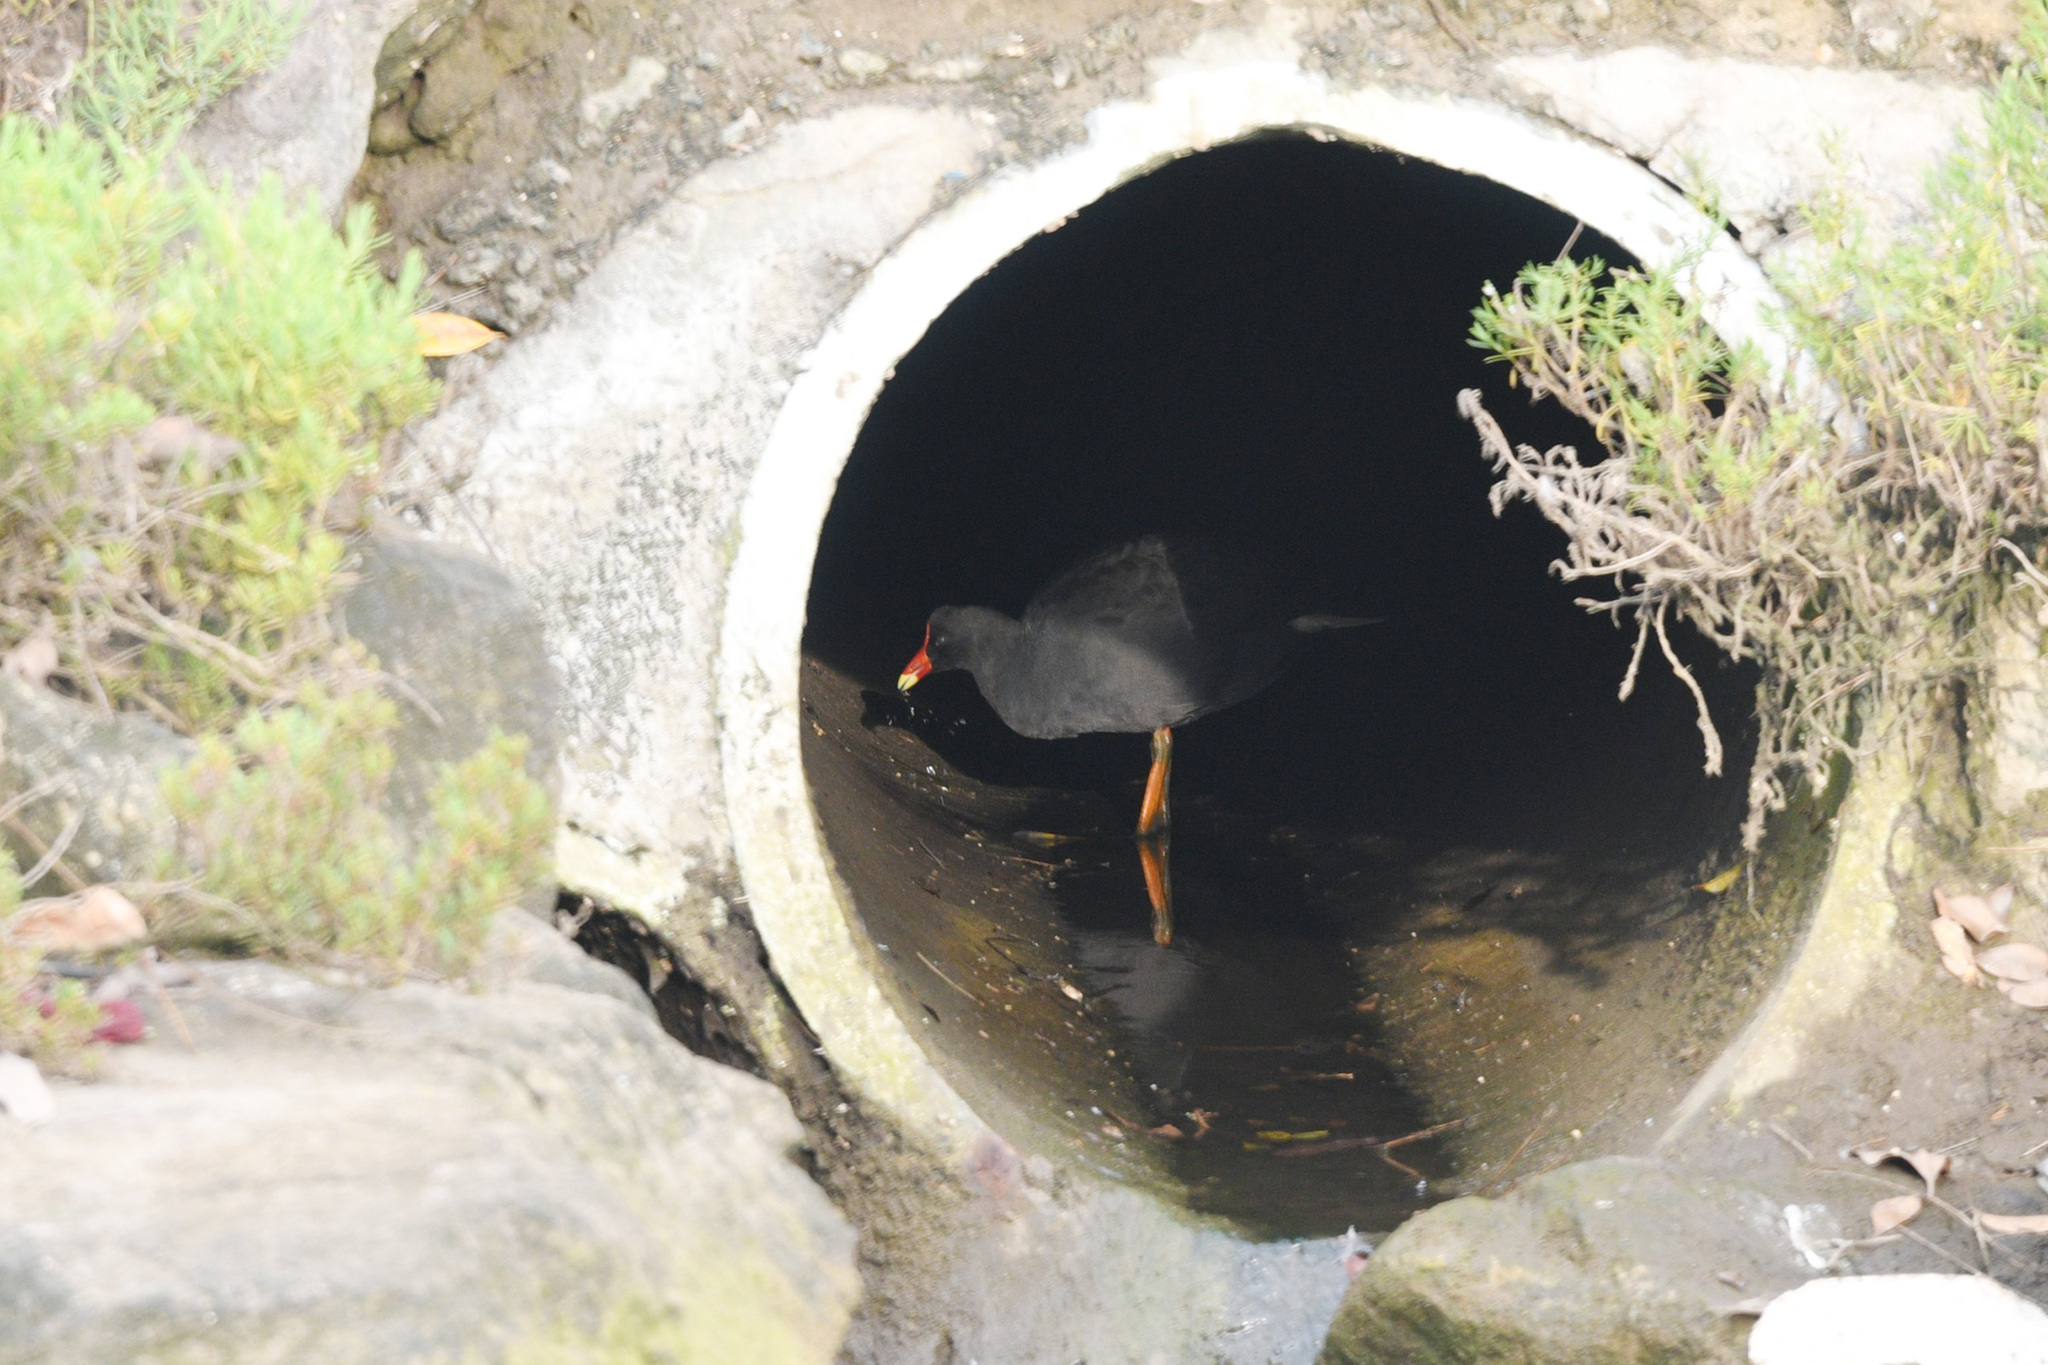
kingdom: Animalia
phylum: Chordata
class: Aves
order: Gruiformes
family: Rallidae
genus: Gallinula
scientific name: Gallinula tenebrosa
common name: Dusky moorhen
